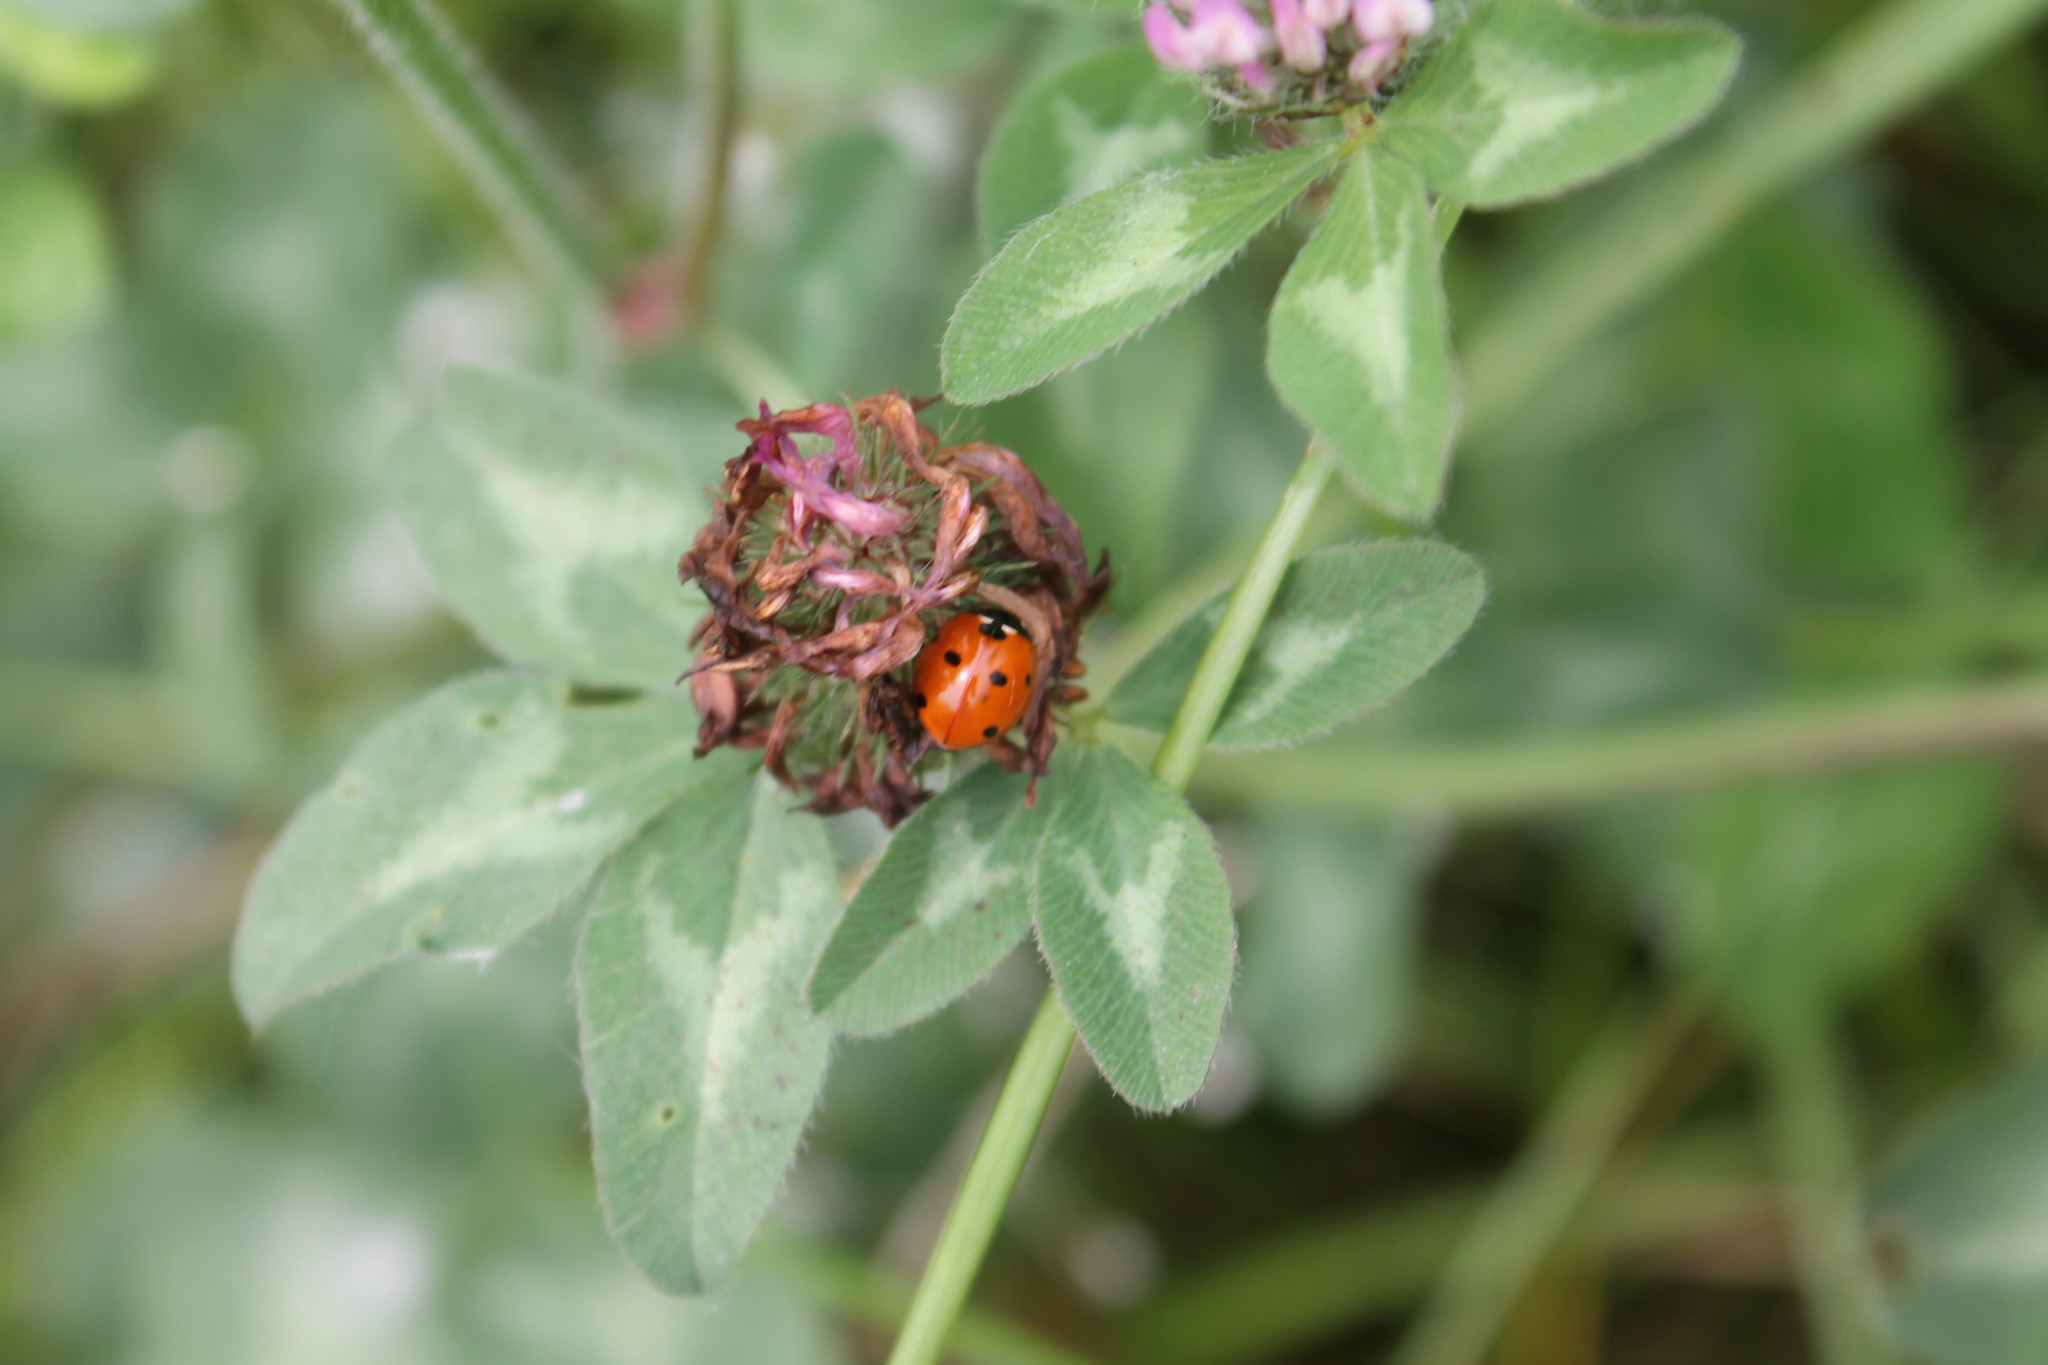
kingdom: Animalia
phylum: Arthropoda
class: Insecta
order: Coleoptera
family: Coccinellidae
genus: Coccinella
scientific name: Coccinella septempunctata
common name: Sevenspotted lady beetle
